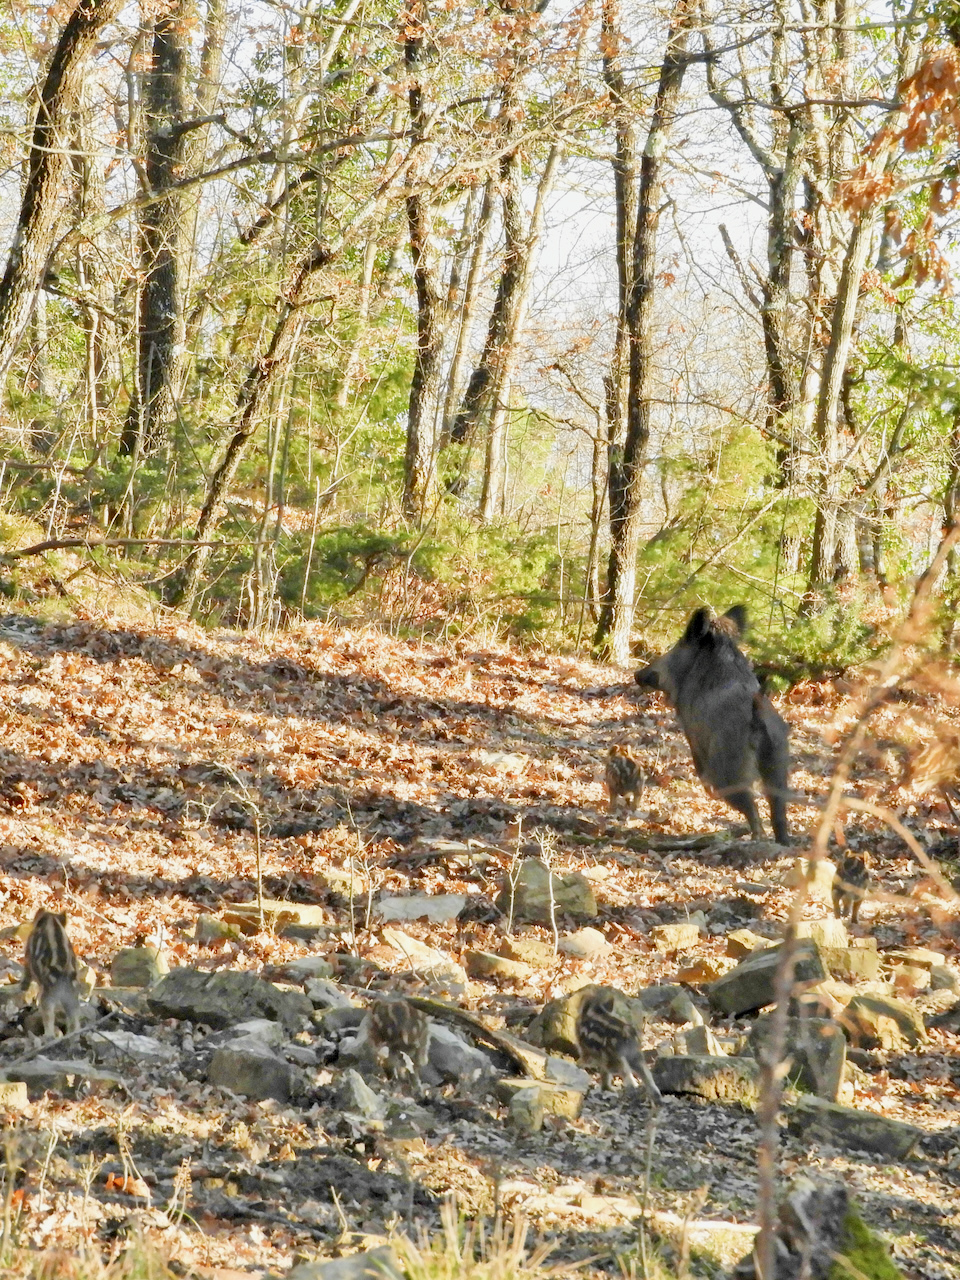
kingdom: Animalia
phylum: Chordata
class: Mammalia
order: Artiodactyla
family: Suidae
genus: Sus
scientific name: Sus scrofa
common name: Wild boar
